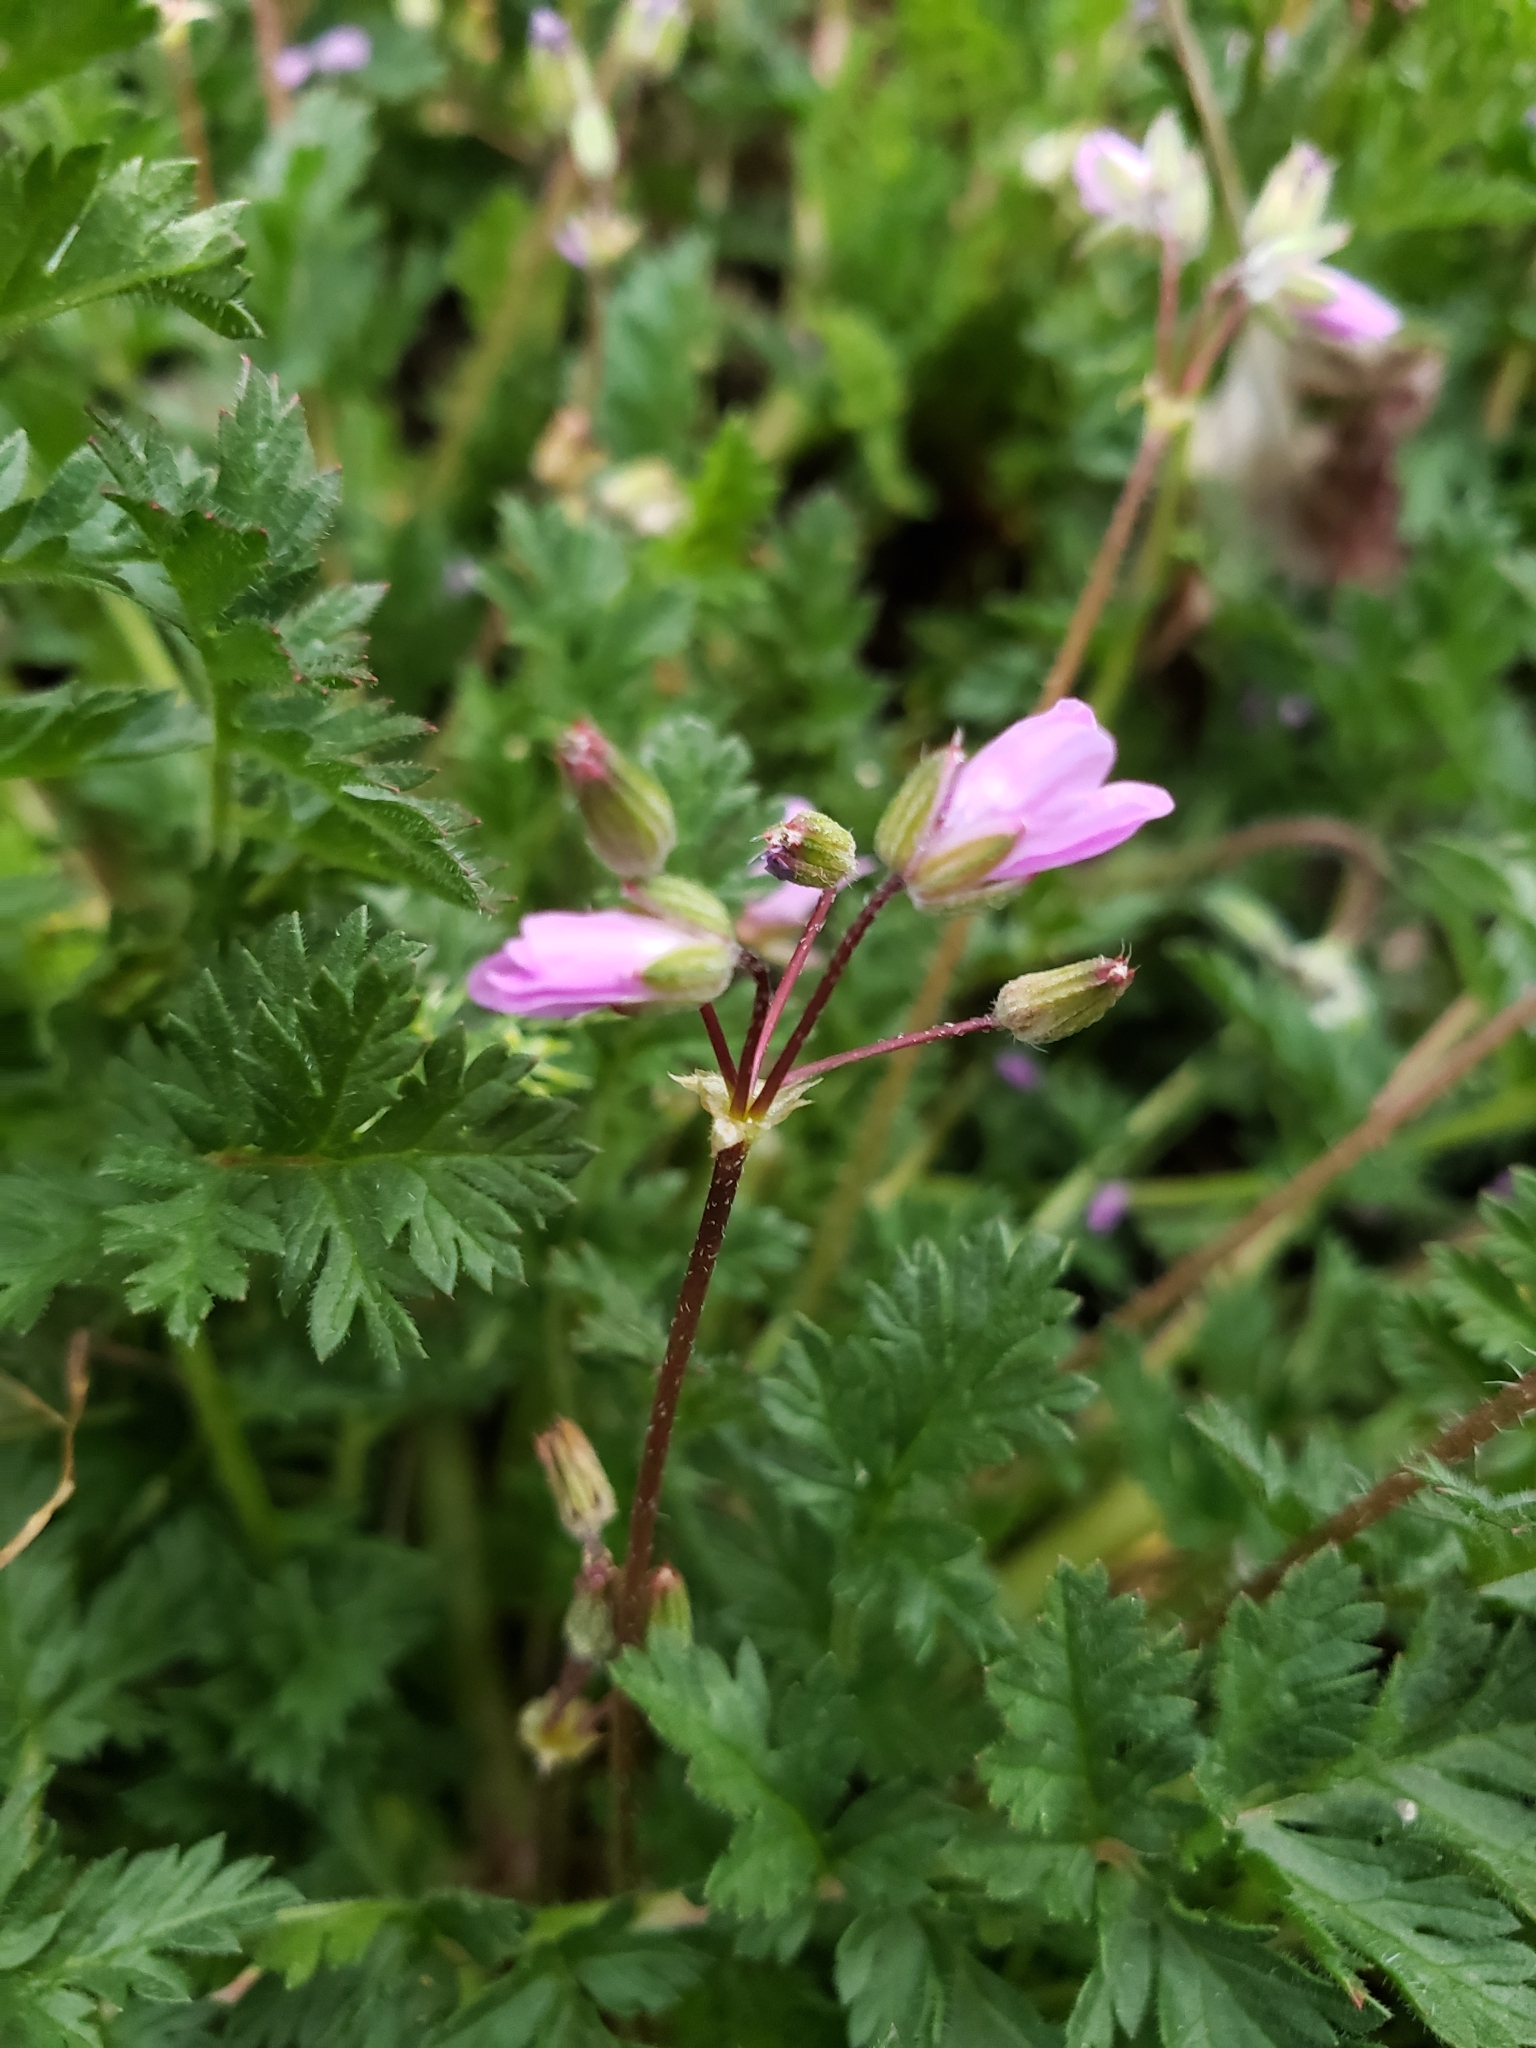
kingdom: Plantae
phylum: Tracheophyta
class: Magnoliopsida
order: Geraniales
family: Geraniaceae
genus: Erodium
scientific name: Erodium cicutarium
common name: Common stork's-bill
